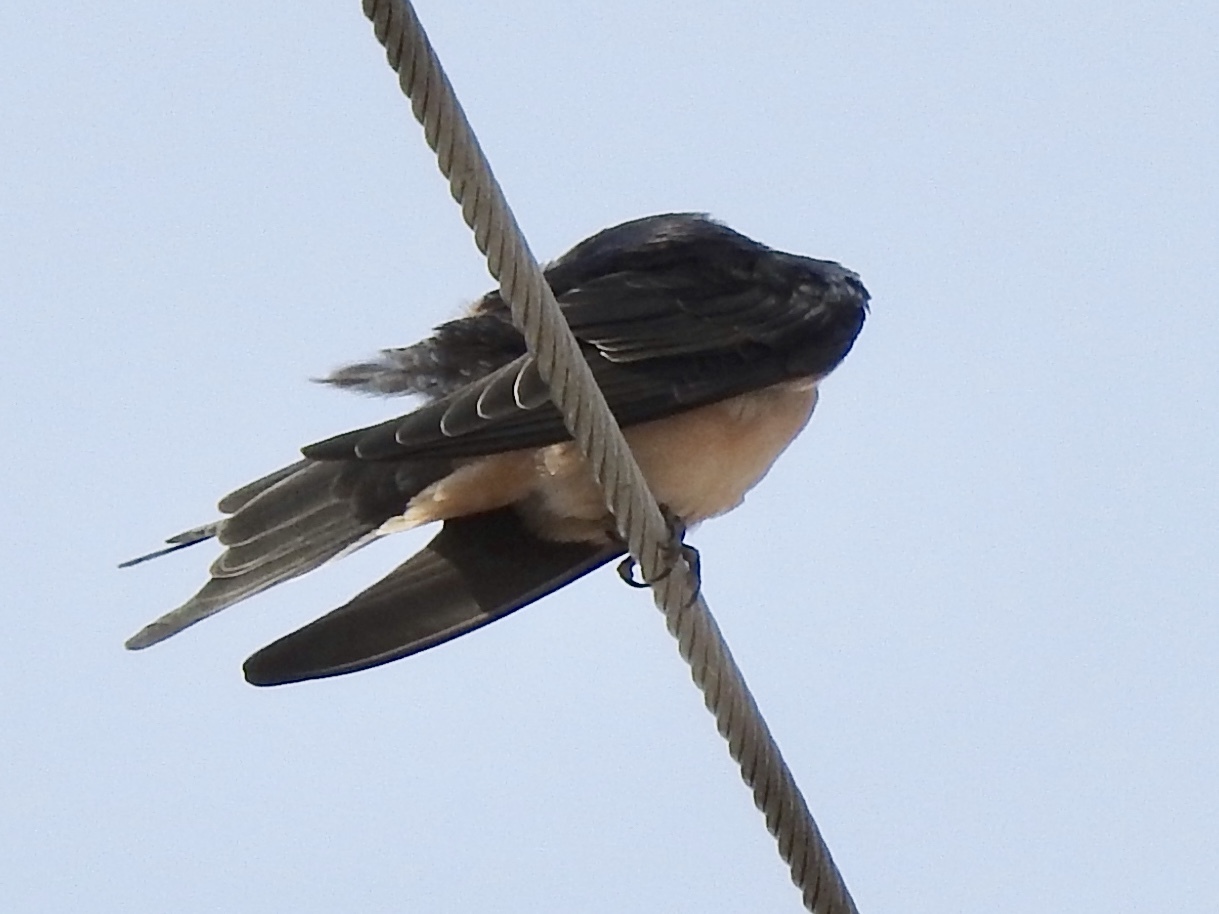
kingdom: Animalia
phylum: Chordata
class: Aves
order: Passeriformes
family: Hirundinidae
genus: Hirundo
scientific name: Hirundo rustica
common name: Barn swallow
